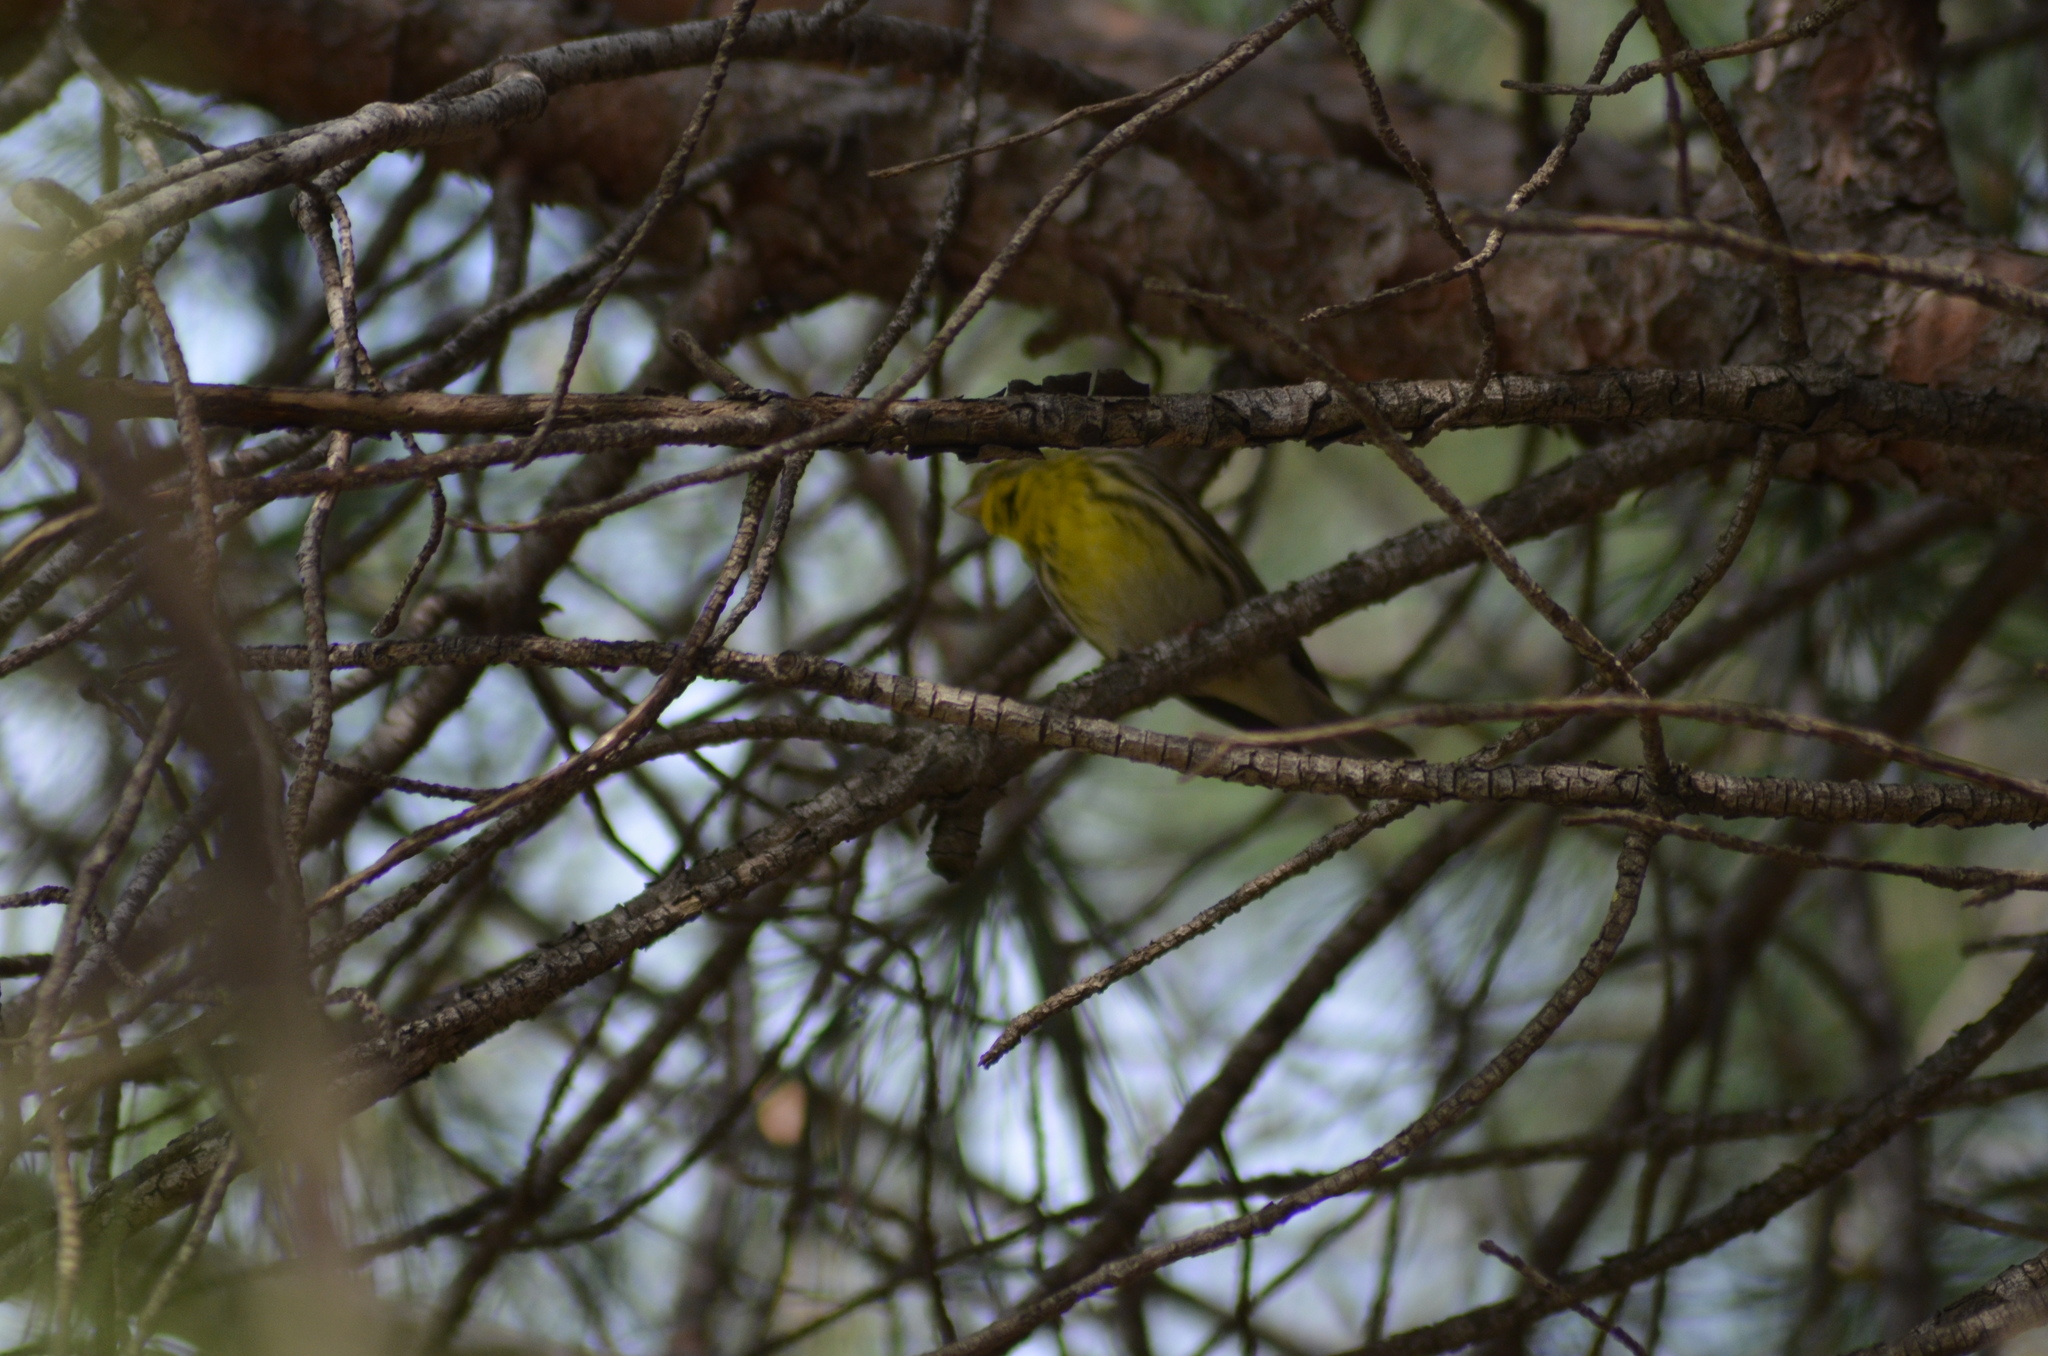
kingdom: Animalia
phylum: Chordata
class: Aves
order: Passeriformes
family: Fringillidae
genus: Serinus
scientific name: Serinus serinus
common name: European serin
